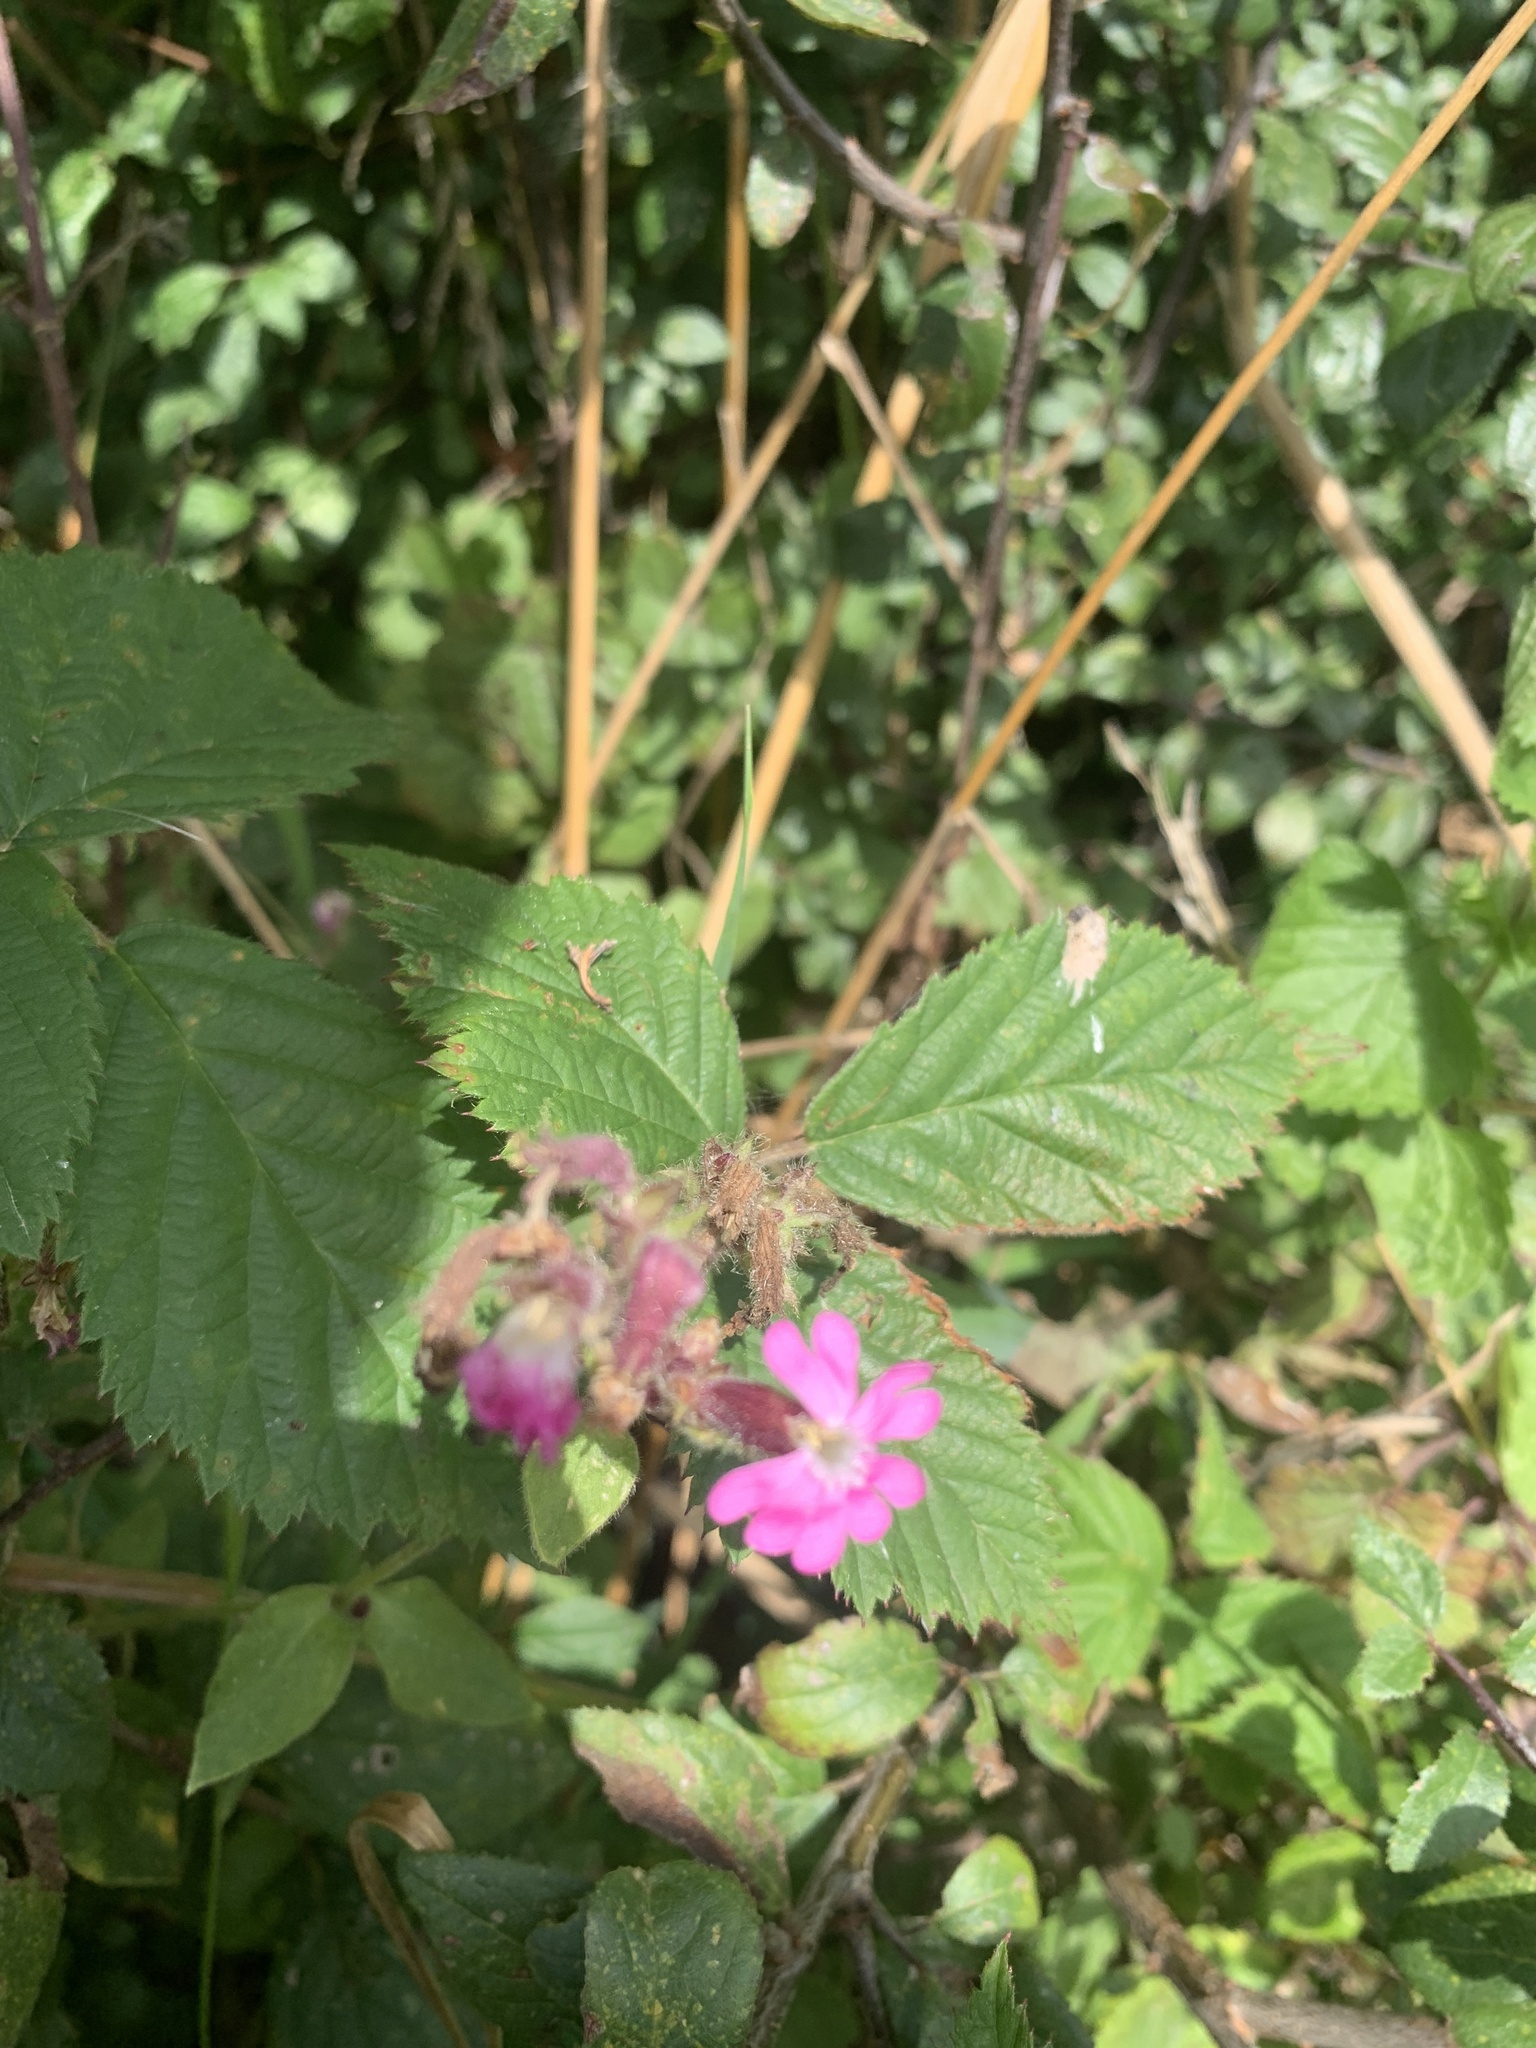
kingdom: Plantae
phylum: Tracheophyta
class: Magnoliopsida
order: Caryophyllales
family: Caryophyllaceae
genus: Silene
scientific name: Silene dioica
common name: Red campion
